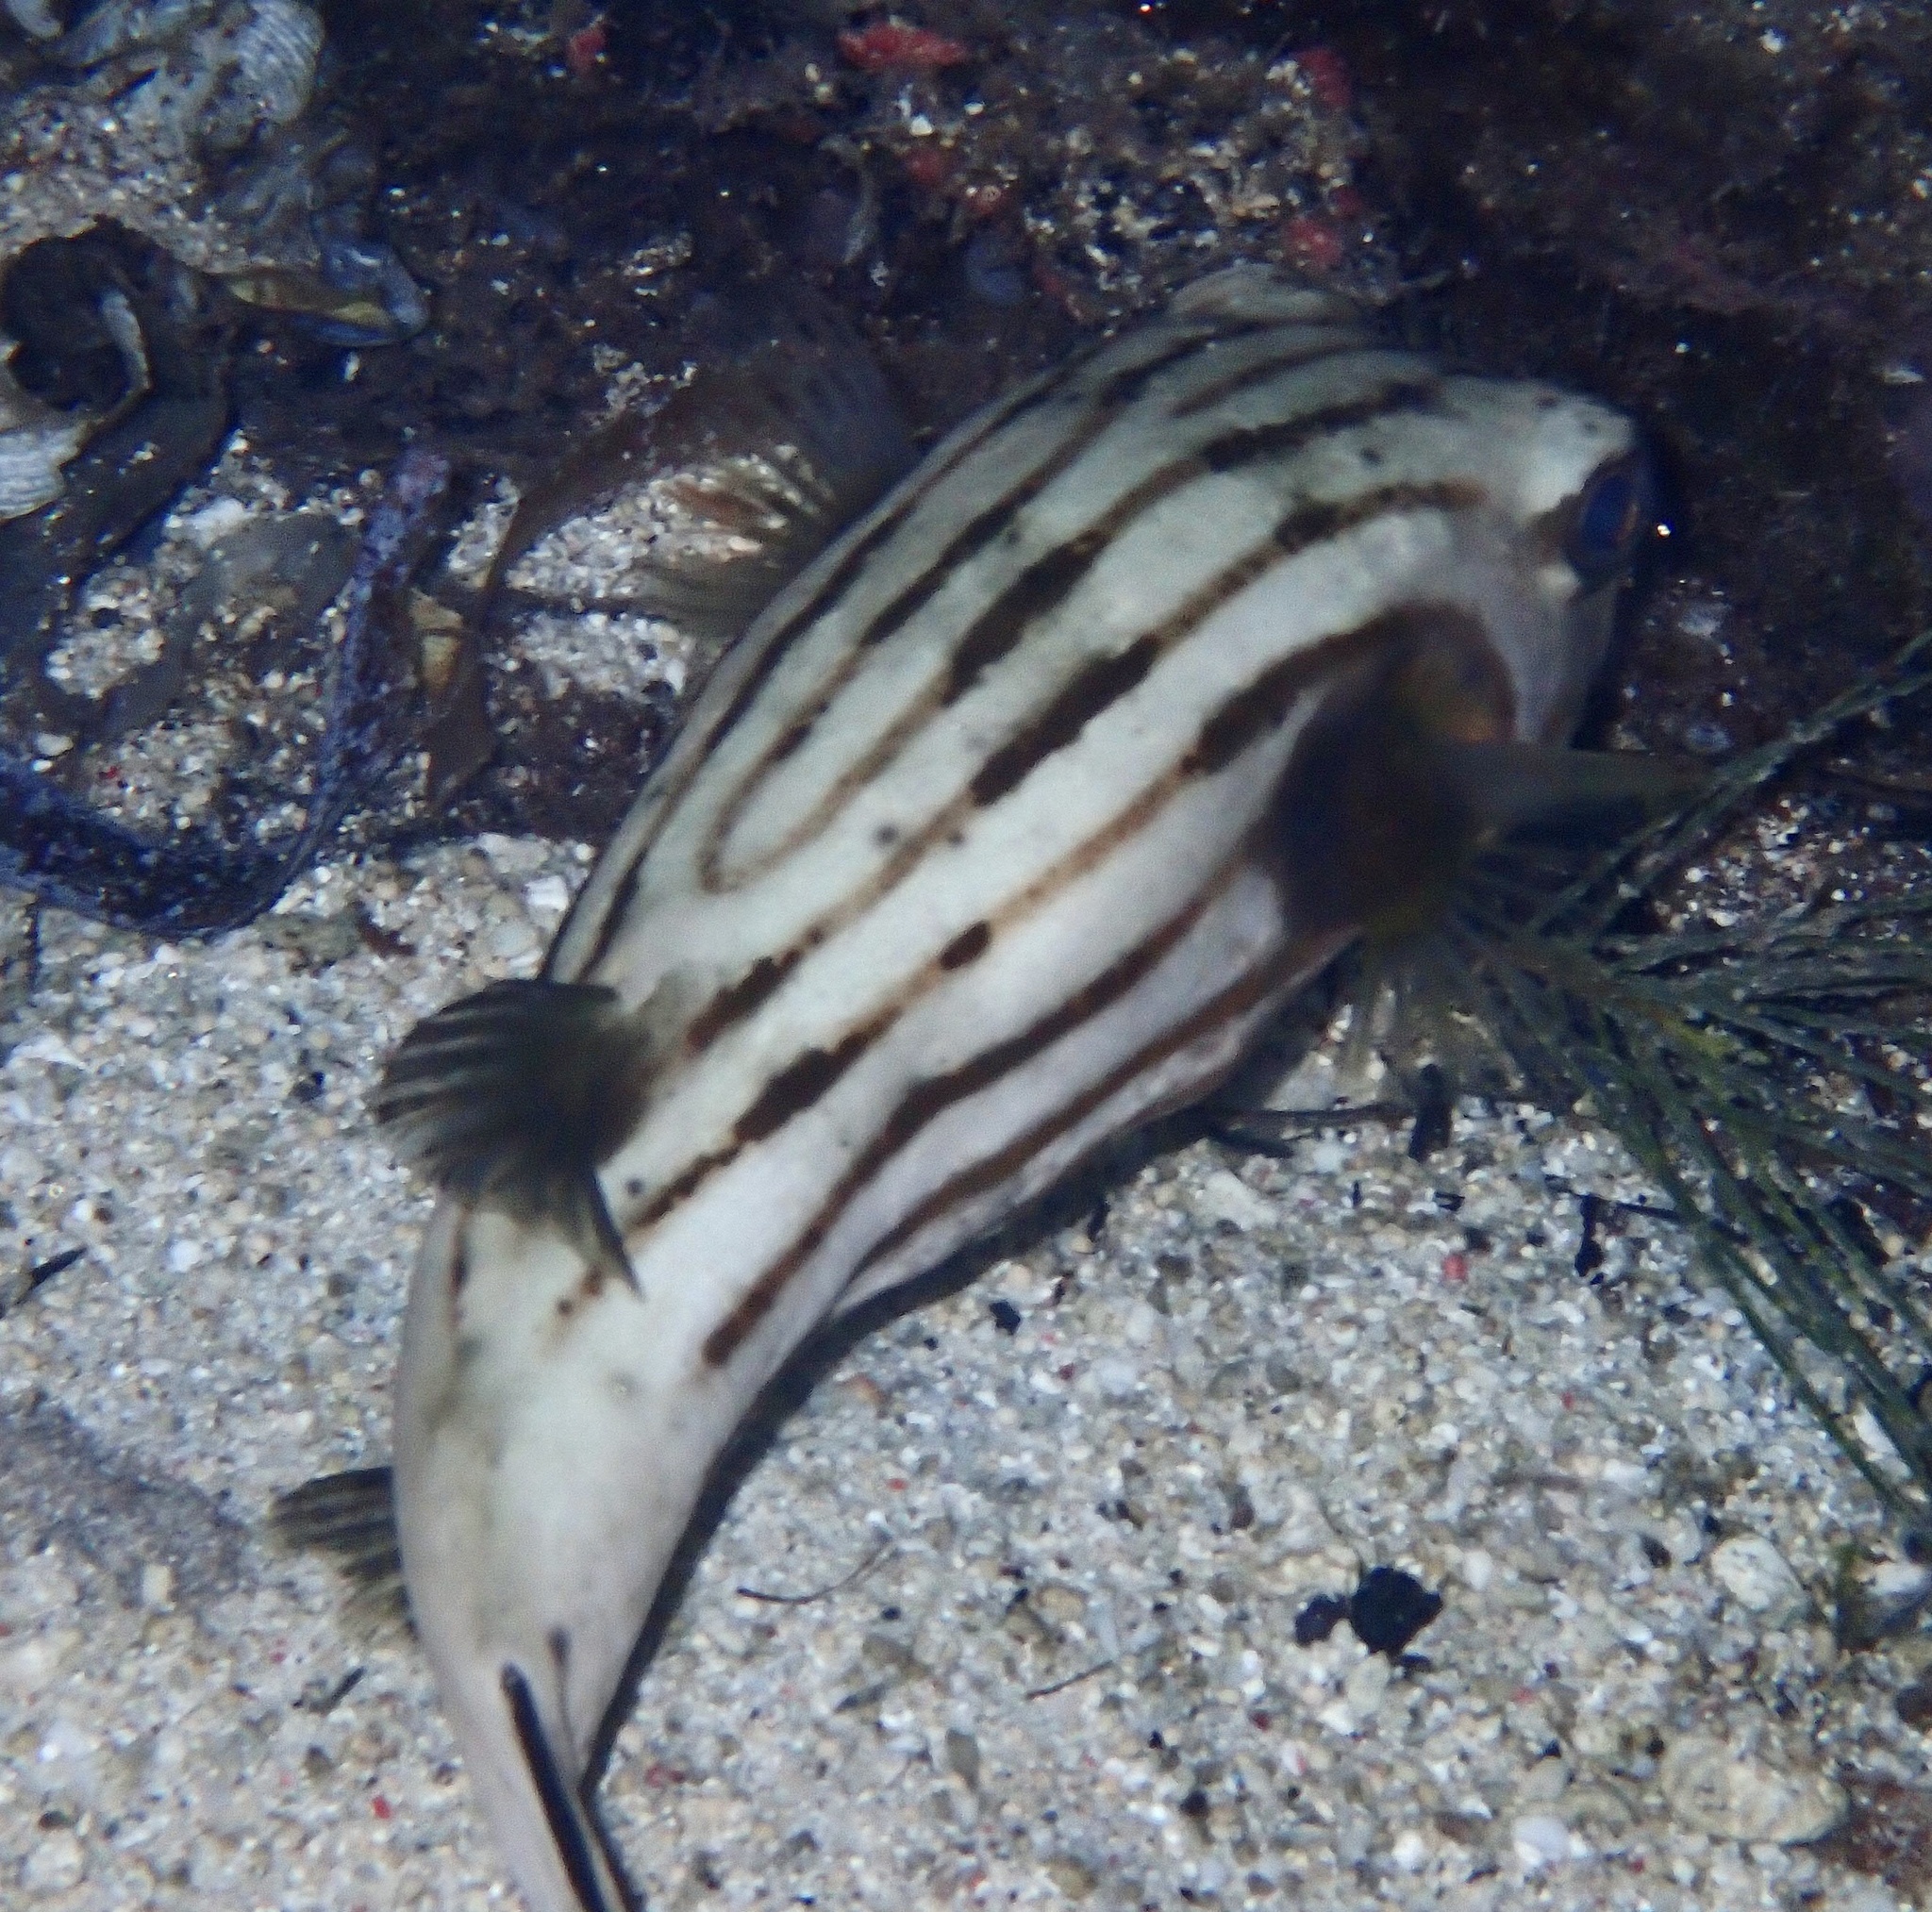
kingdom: Animalia
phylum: Chordata
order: Tetraodontiformes
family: Tetraodontidae
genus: Arothron
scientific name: Arothron manilensis
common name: Narrow-lined puffer
